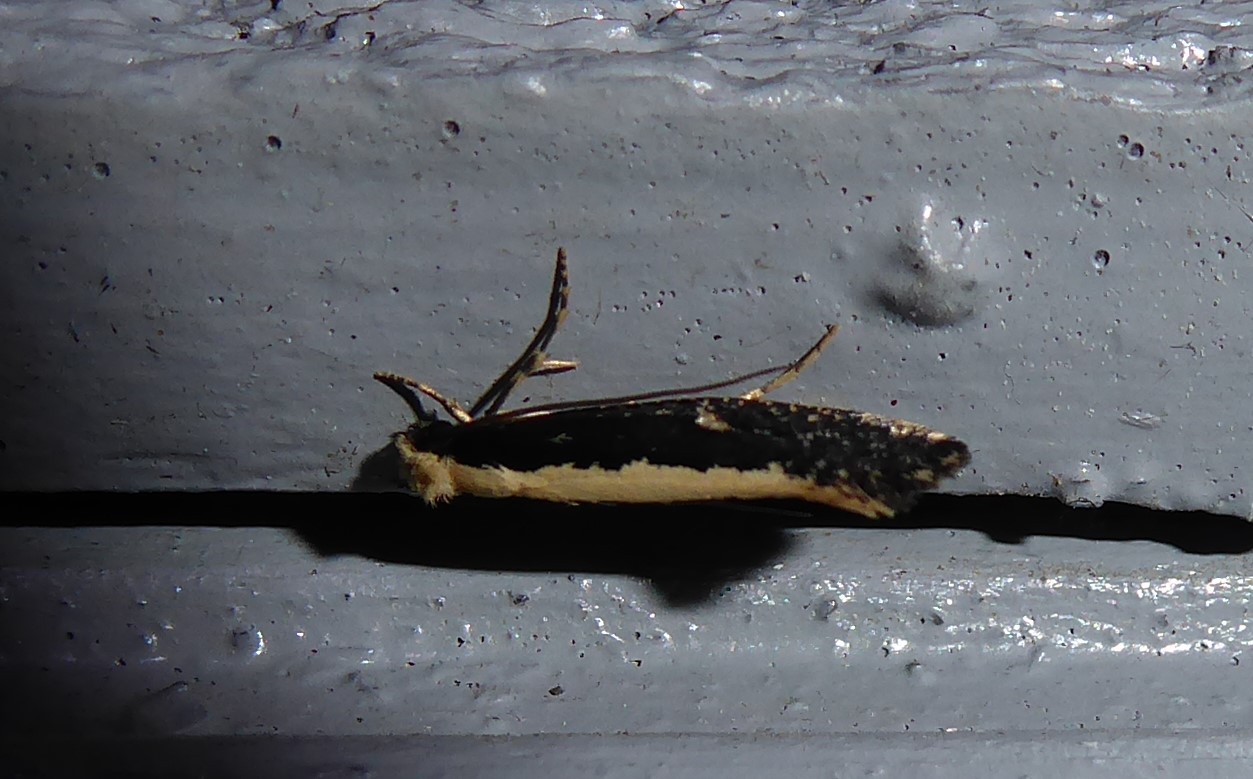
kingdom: Animalia
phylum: Arthropoda
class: Insecta
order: Lepidoptera
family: Tineidae
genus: Monopis
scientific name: Monopis ethelella
